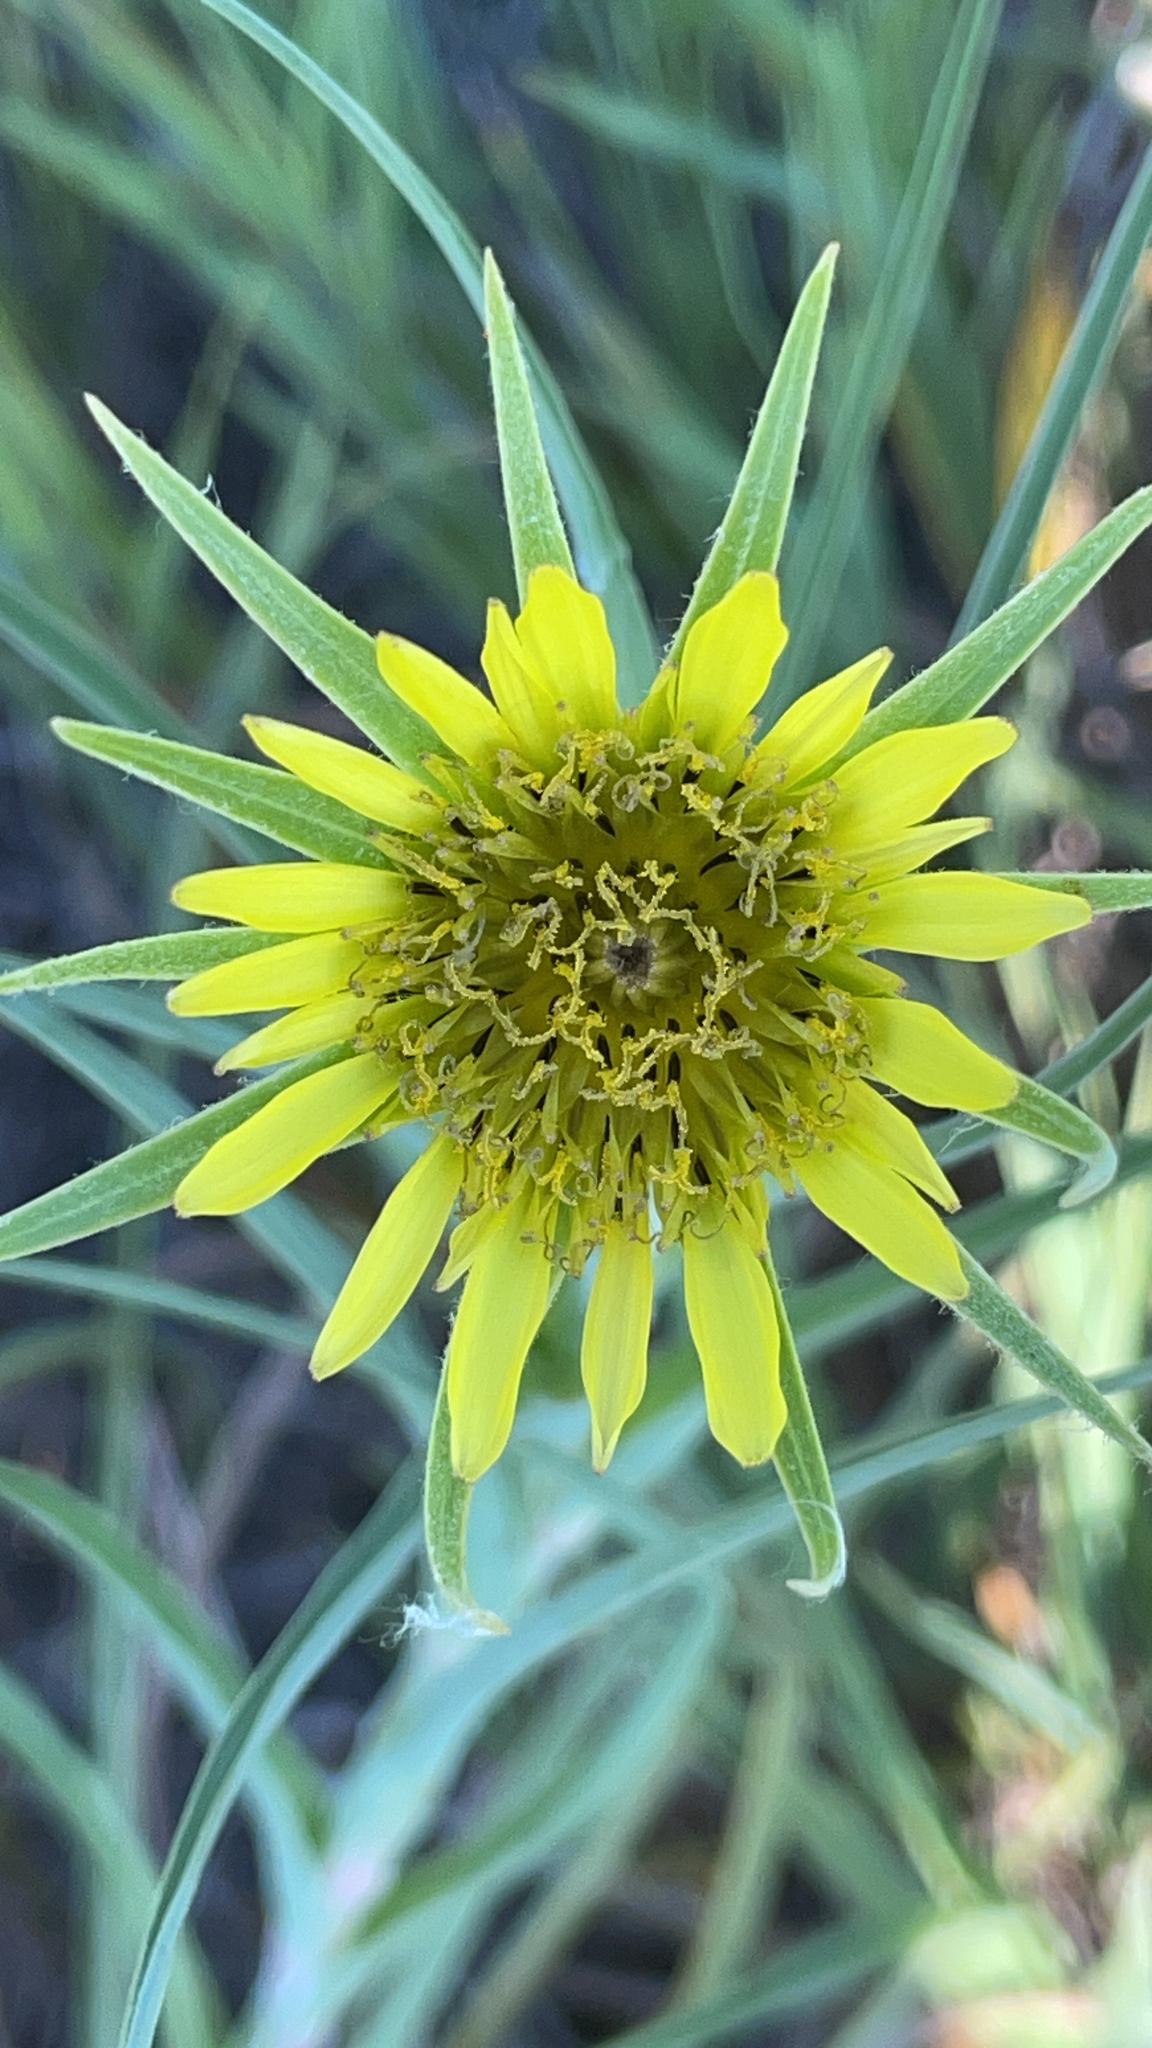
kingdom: Plantae
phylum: Tracheophyta
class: Magnoliopsida
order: Asterales
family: Asteraceae
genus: Tragopogon
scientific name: Tragopogon dubius
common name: Yellow salsify
